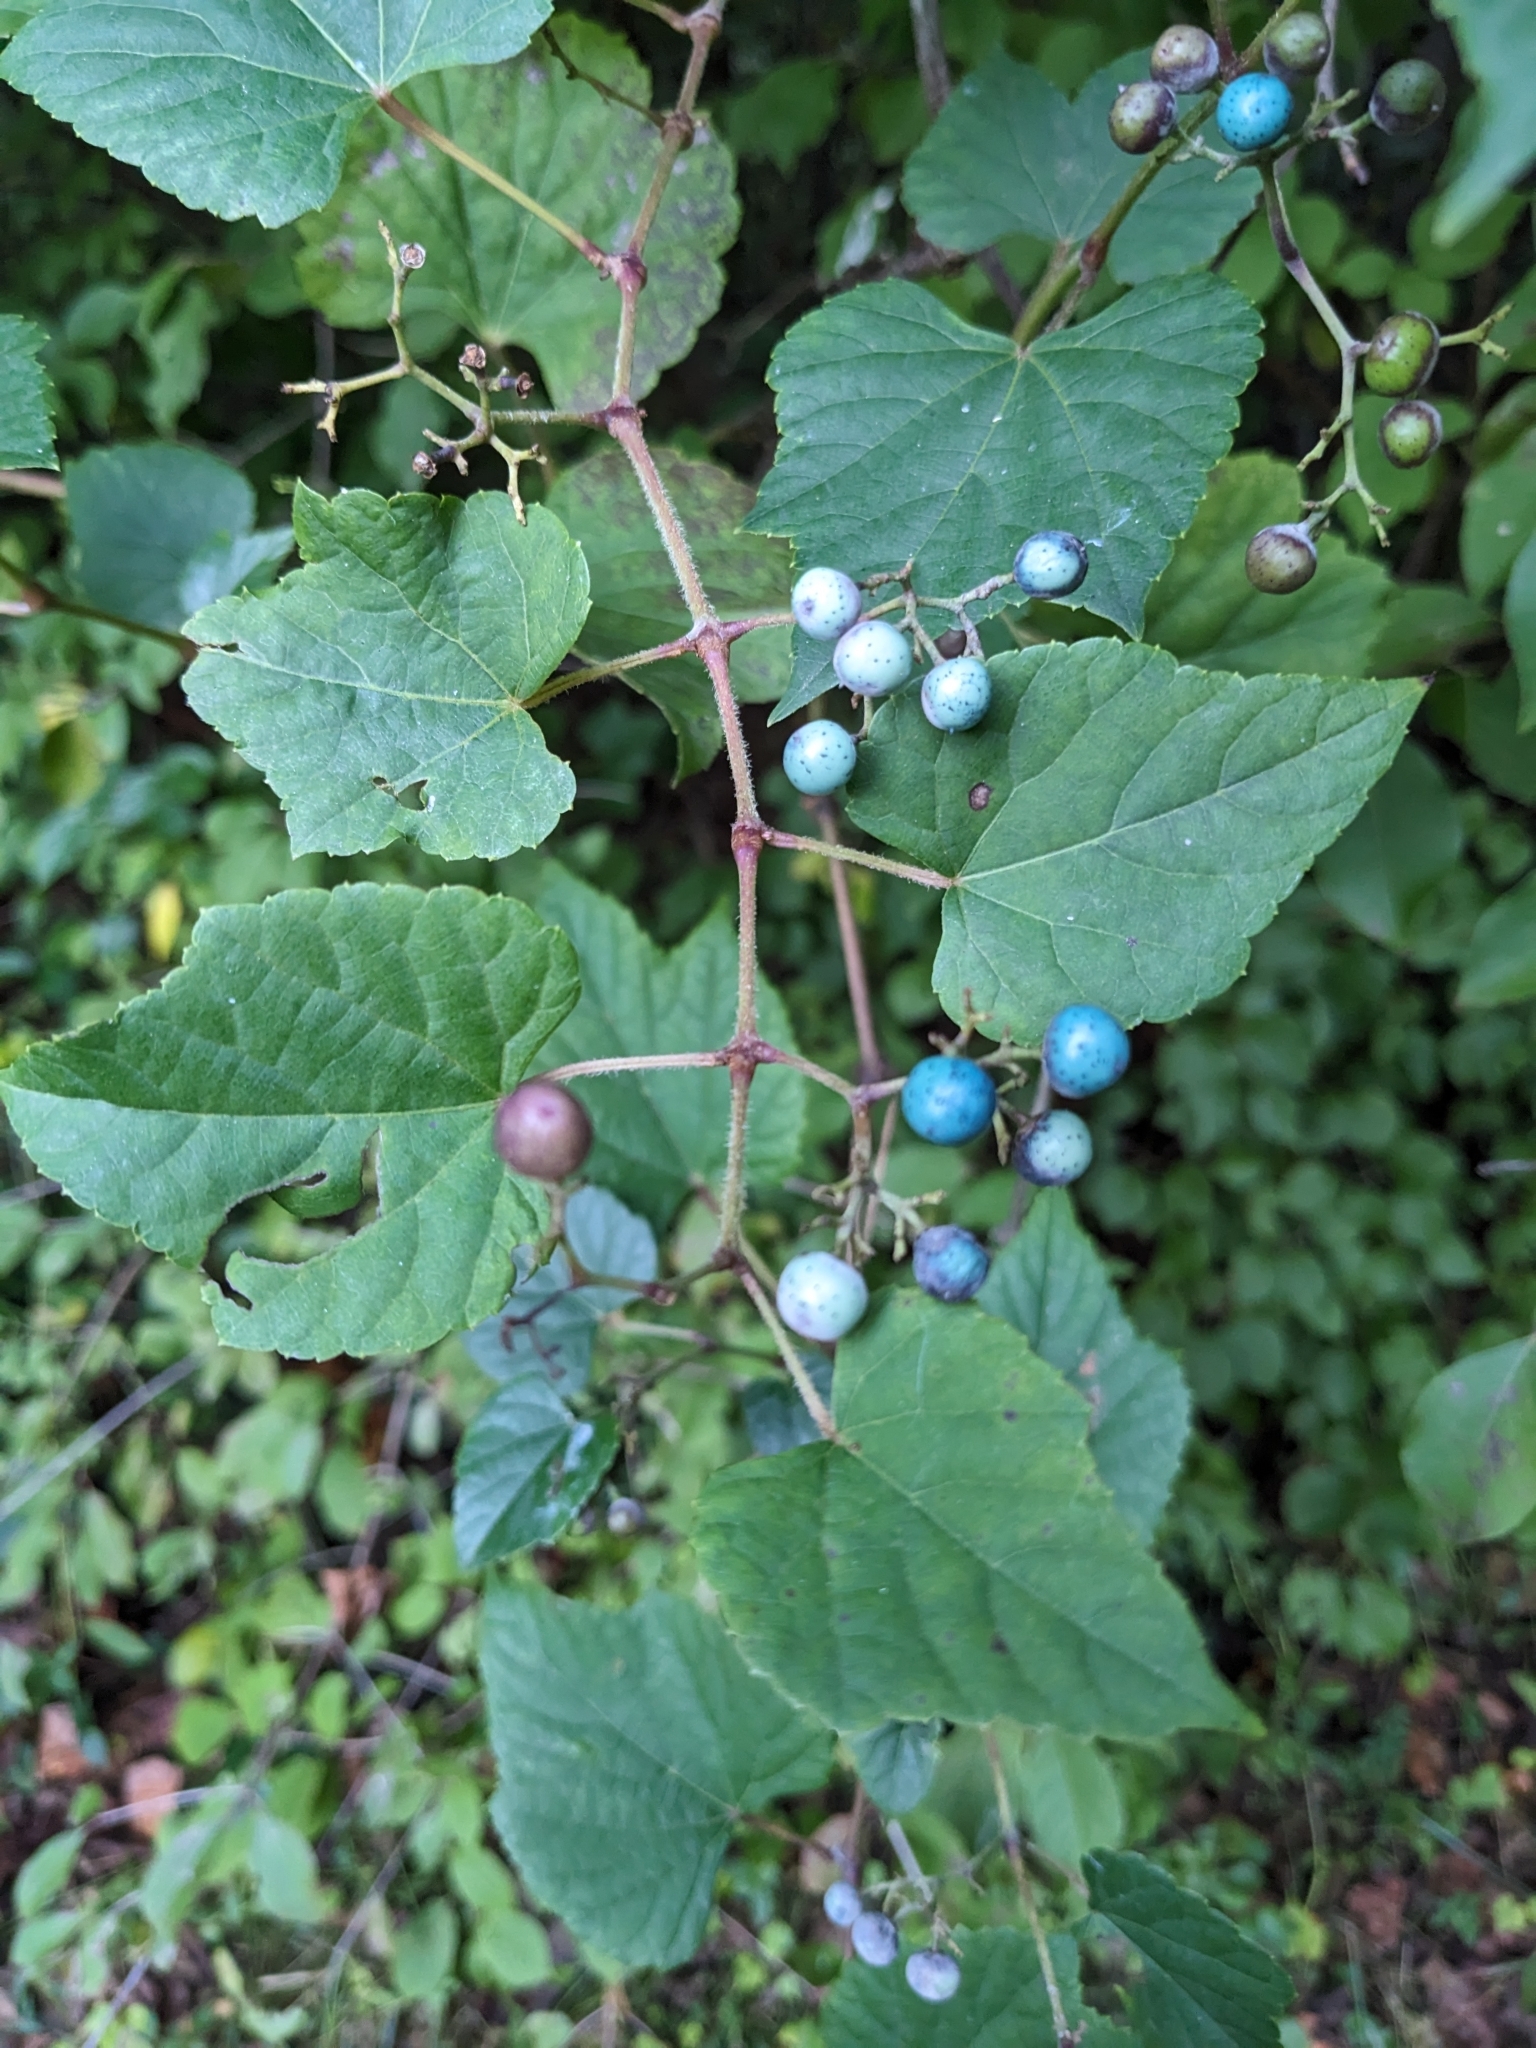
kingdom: Plantae
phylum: Tracheophyta
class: Magnoliopsida
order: Vitales
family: Vitaceae
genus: Ampelopsis
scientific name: Ampelopsis glandulosa
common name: Amur peppervine
